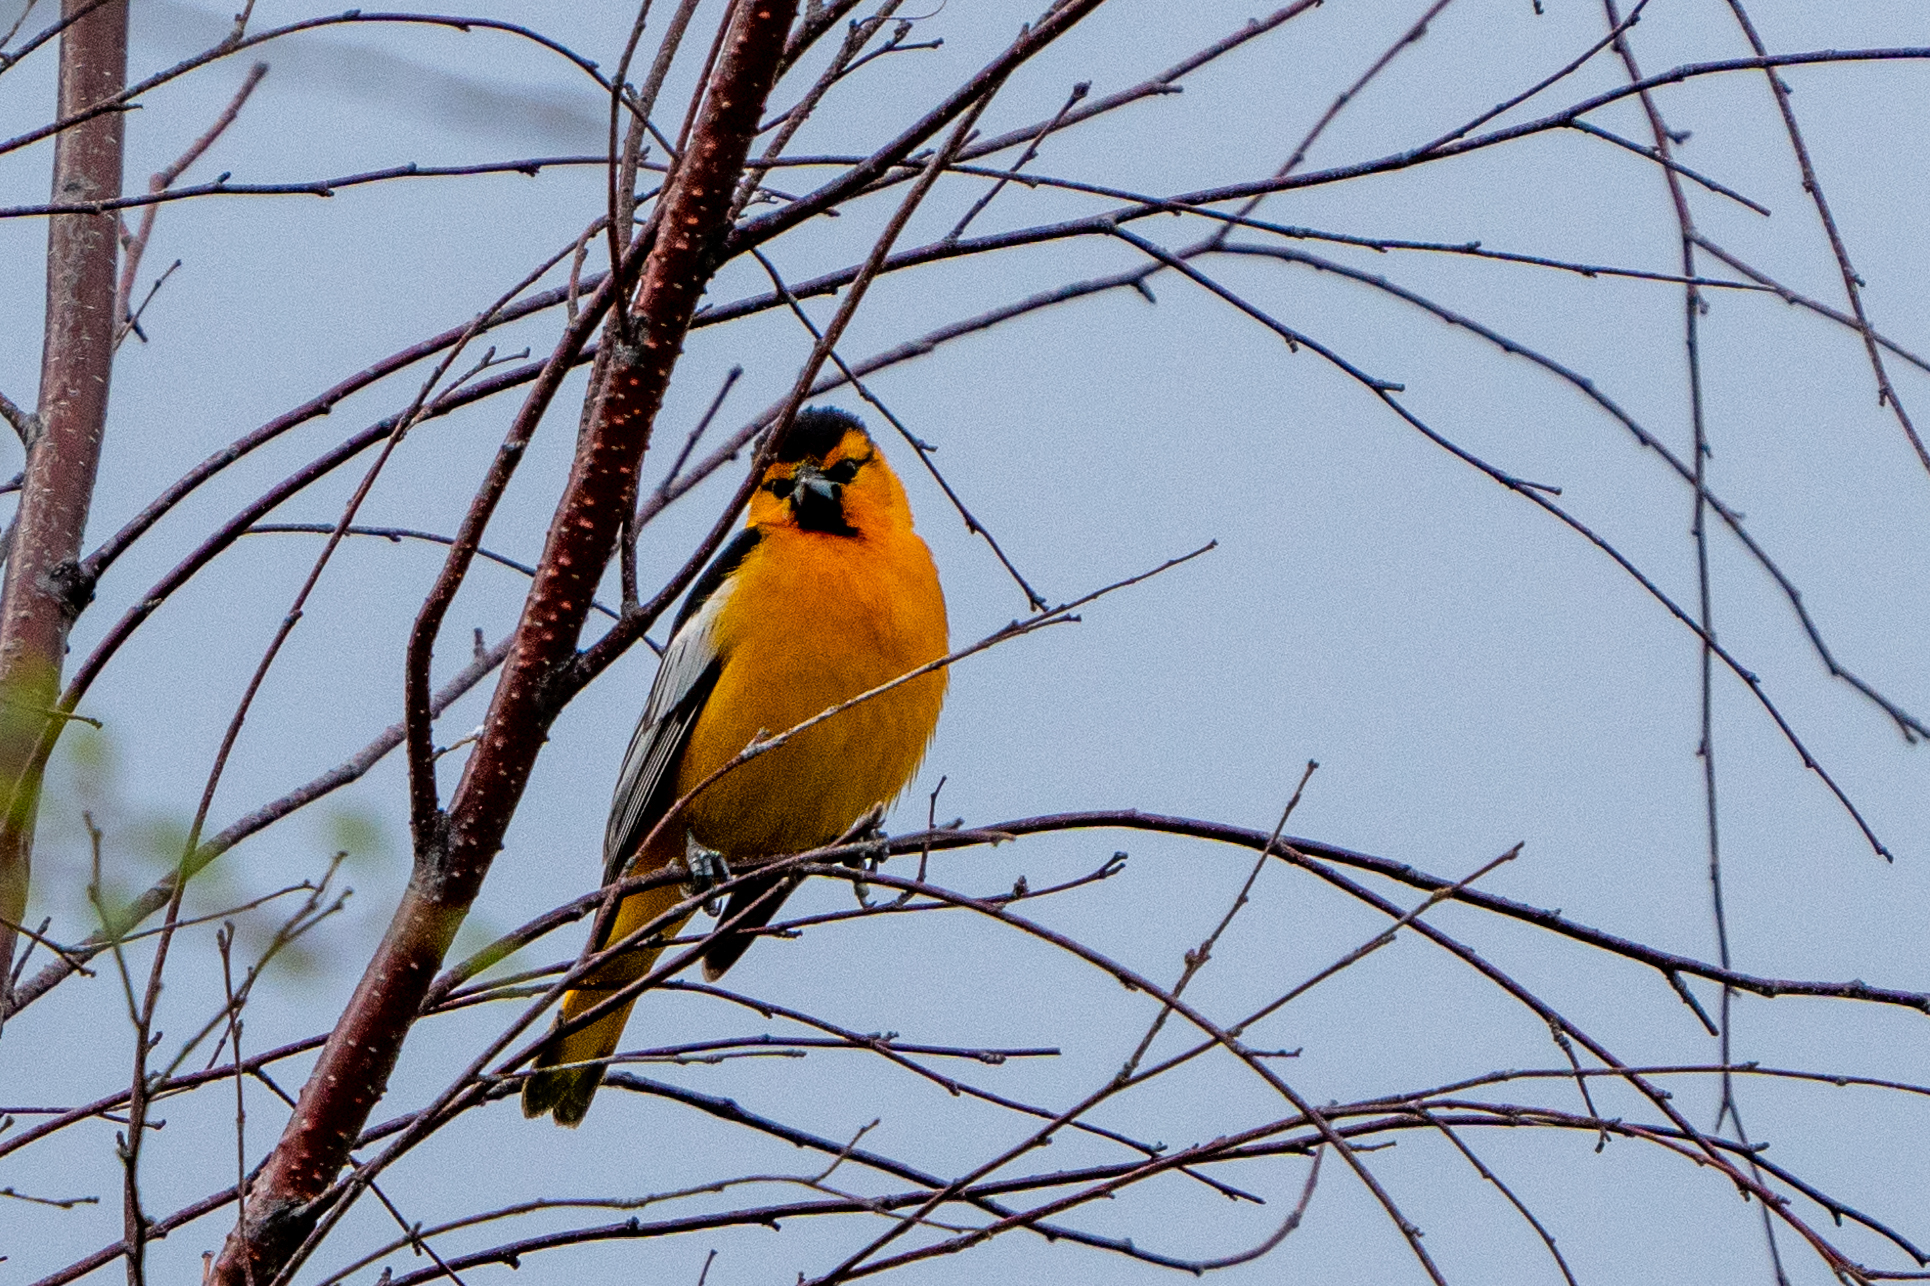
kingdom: Animalia
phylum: Chordata
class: Aves
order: Passeriformes
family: Icteridae
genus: Icterus
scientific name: Icterus bullockii
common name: Bullock's oriole
